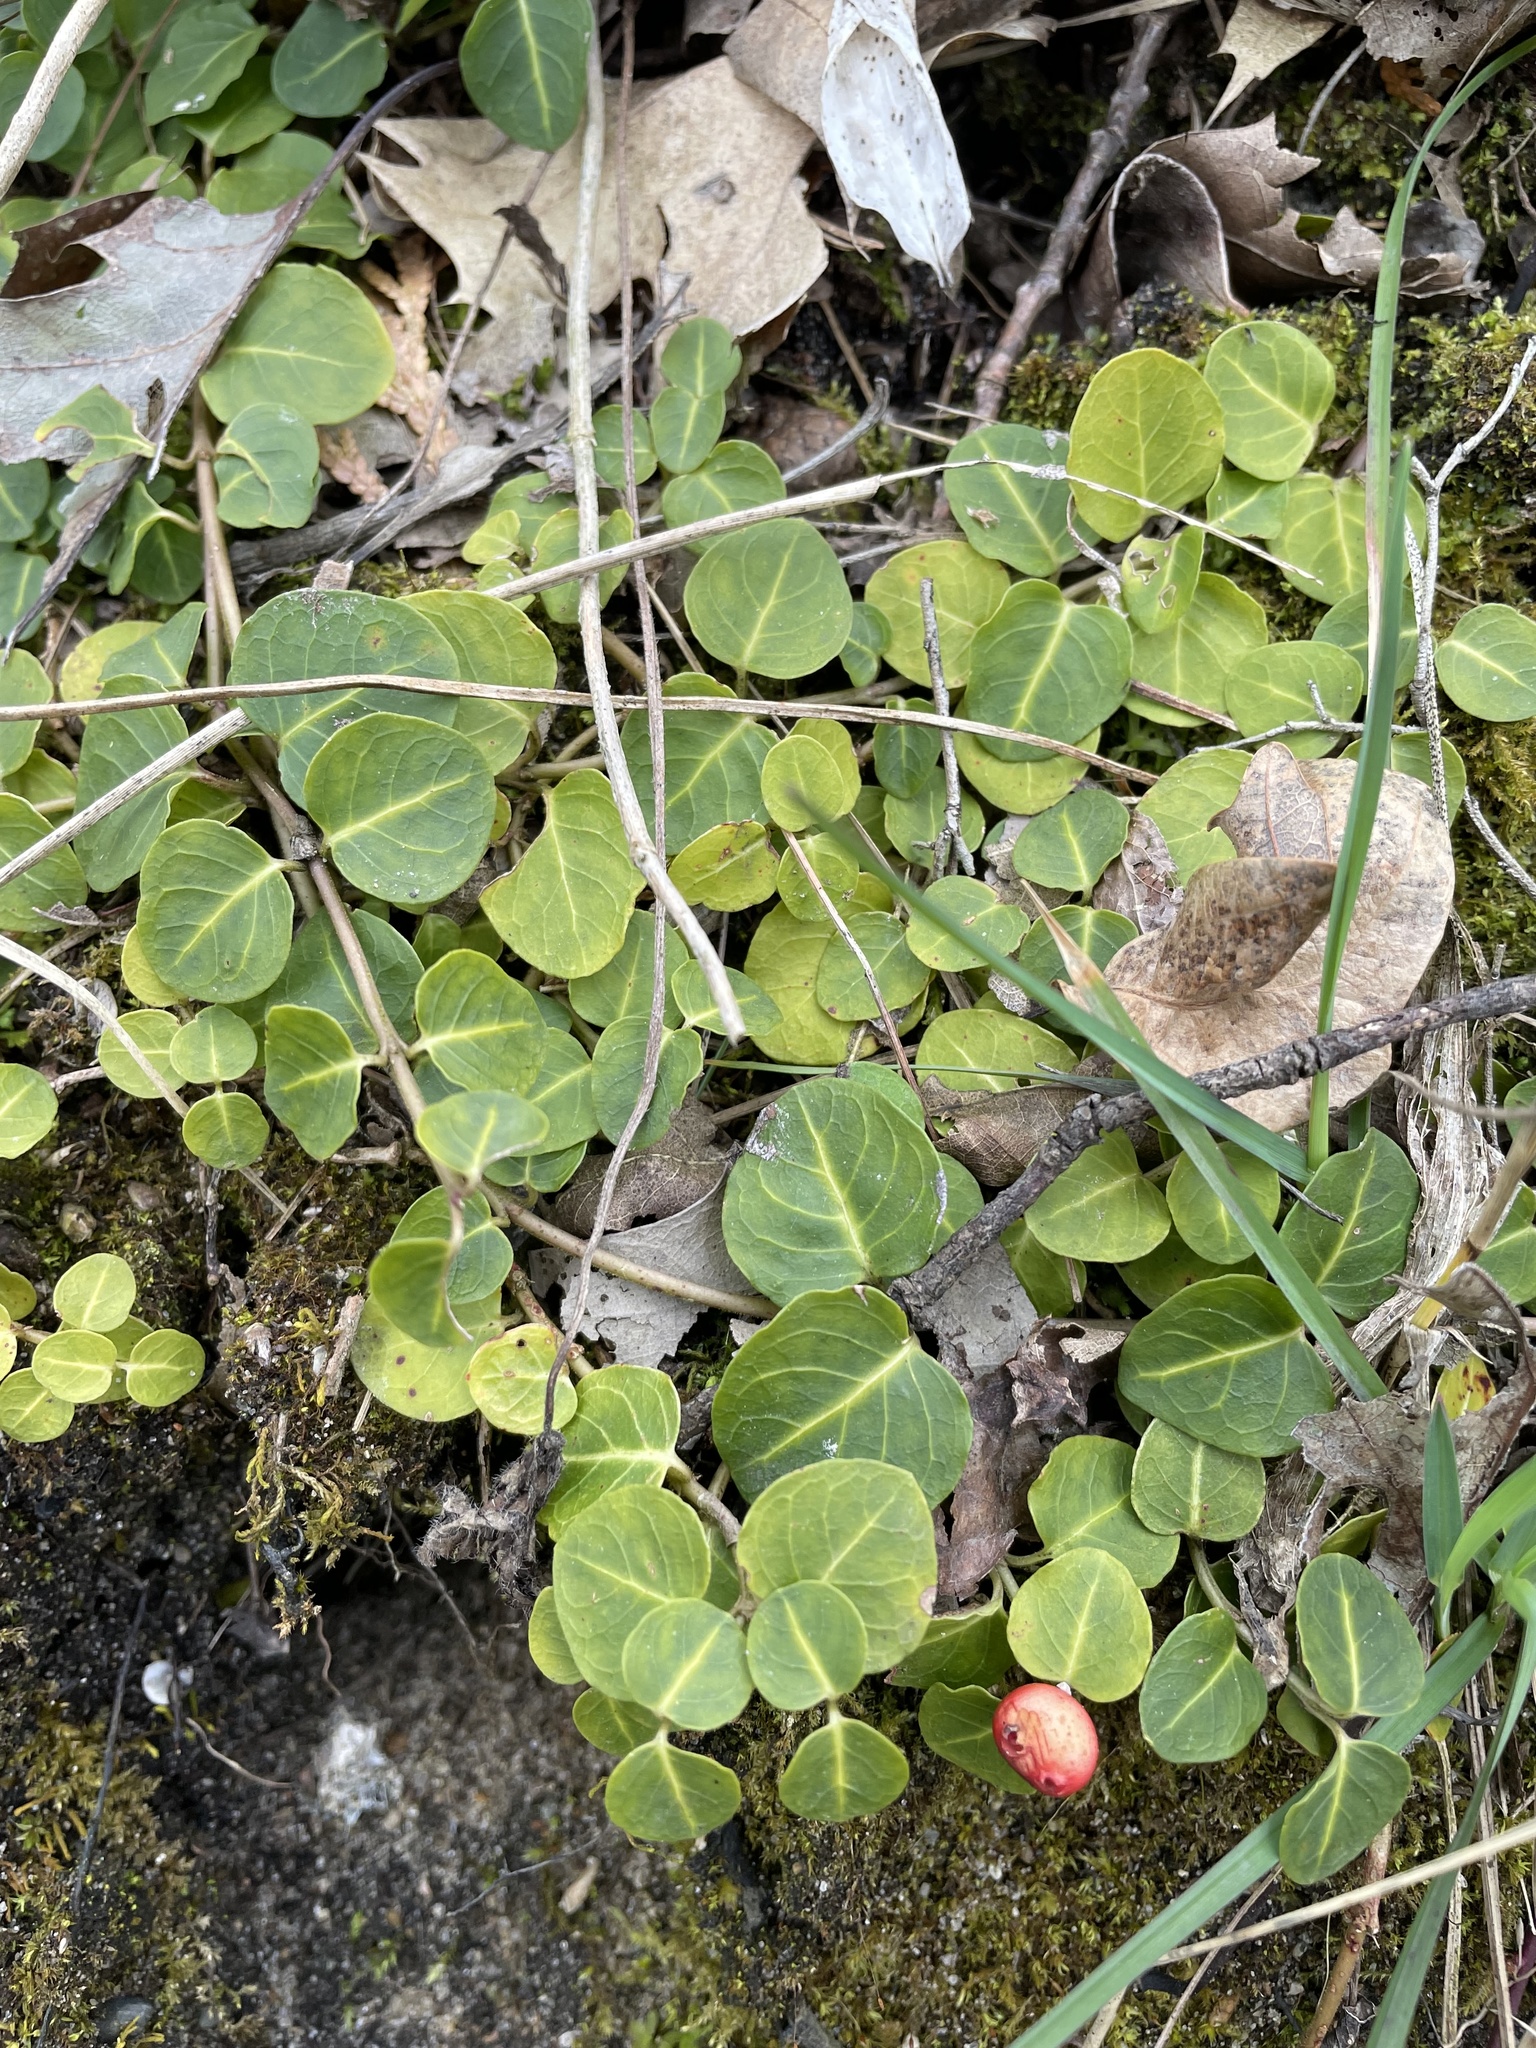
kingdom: Plantae
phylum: Tracheophyta
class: Magnoliopsida
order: Gentianales
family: Rubiaceae
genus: Mitchella
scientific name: Mitchella repens
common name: Partridge-berry
